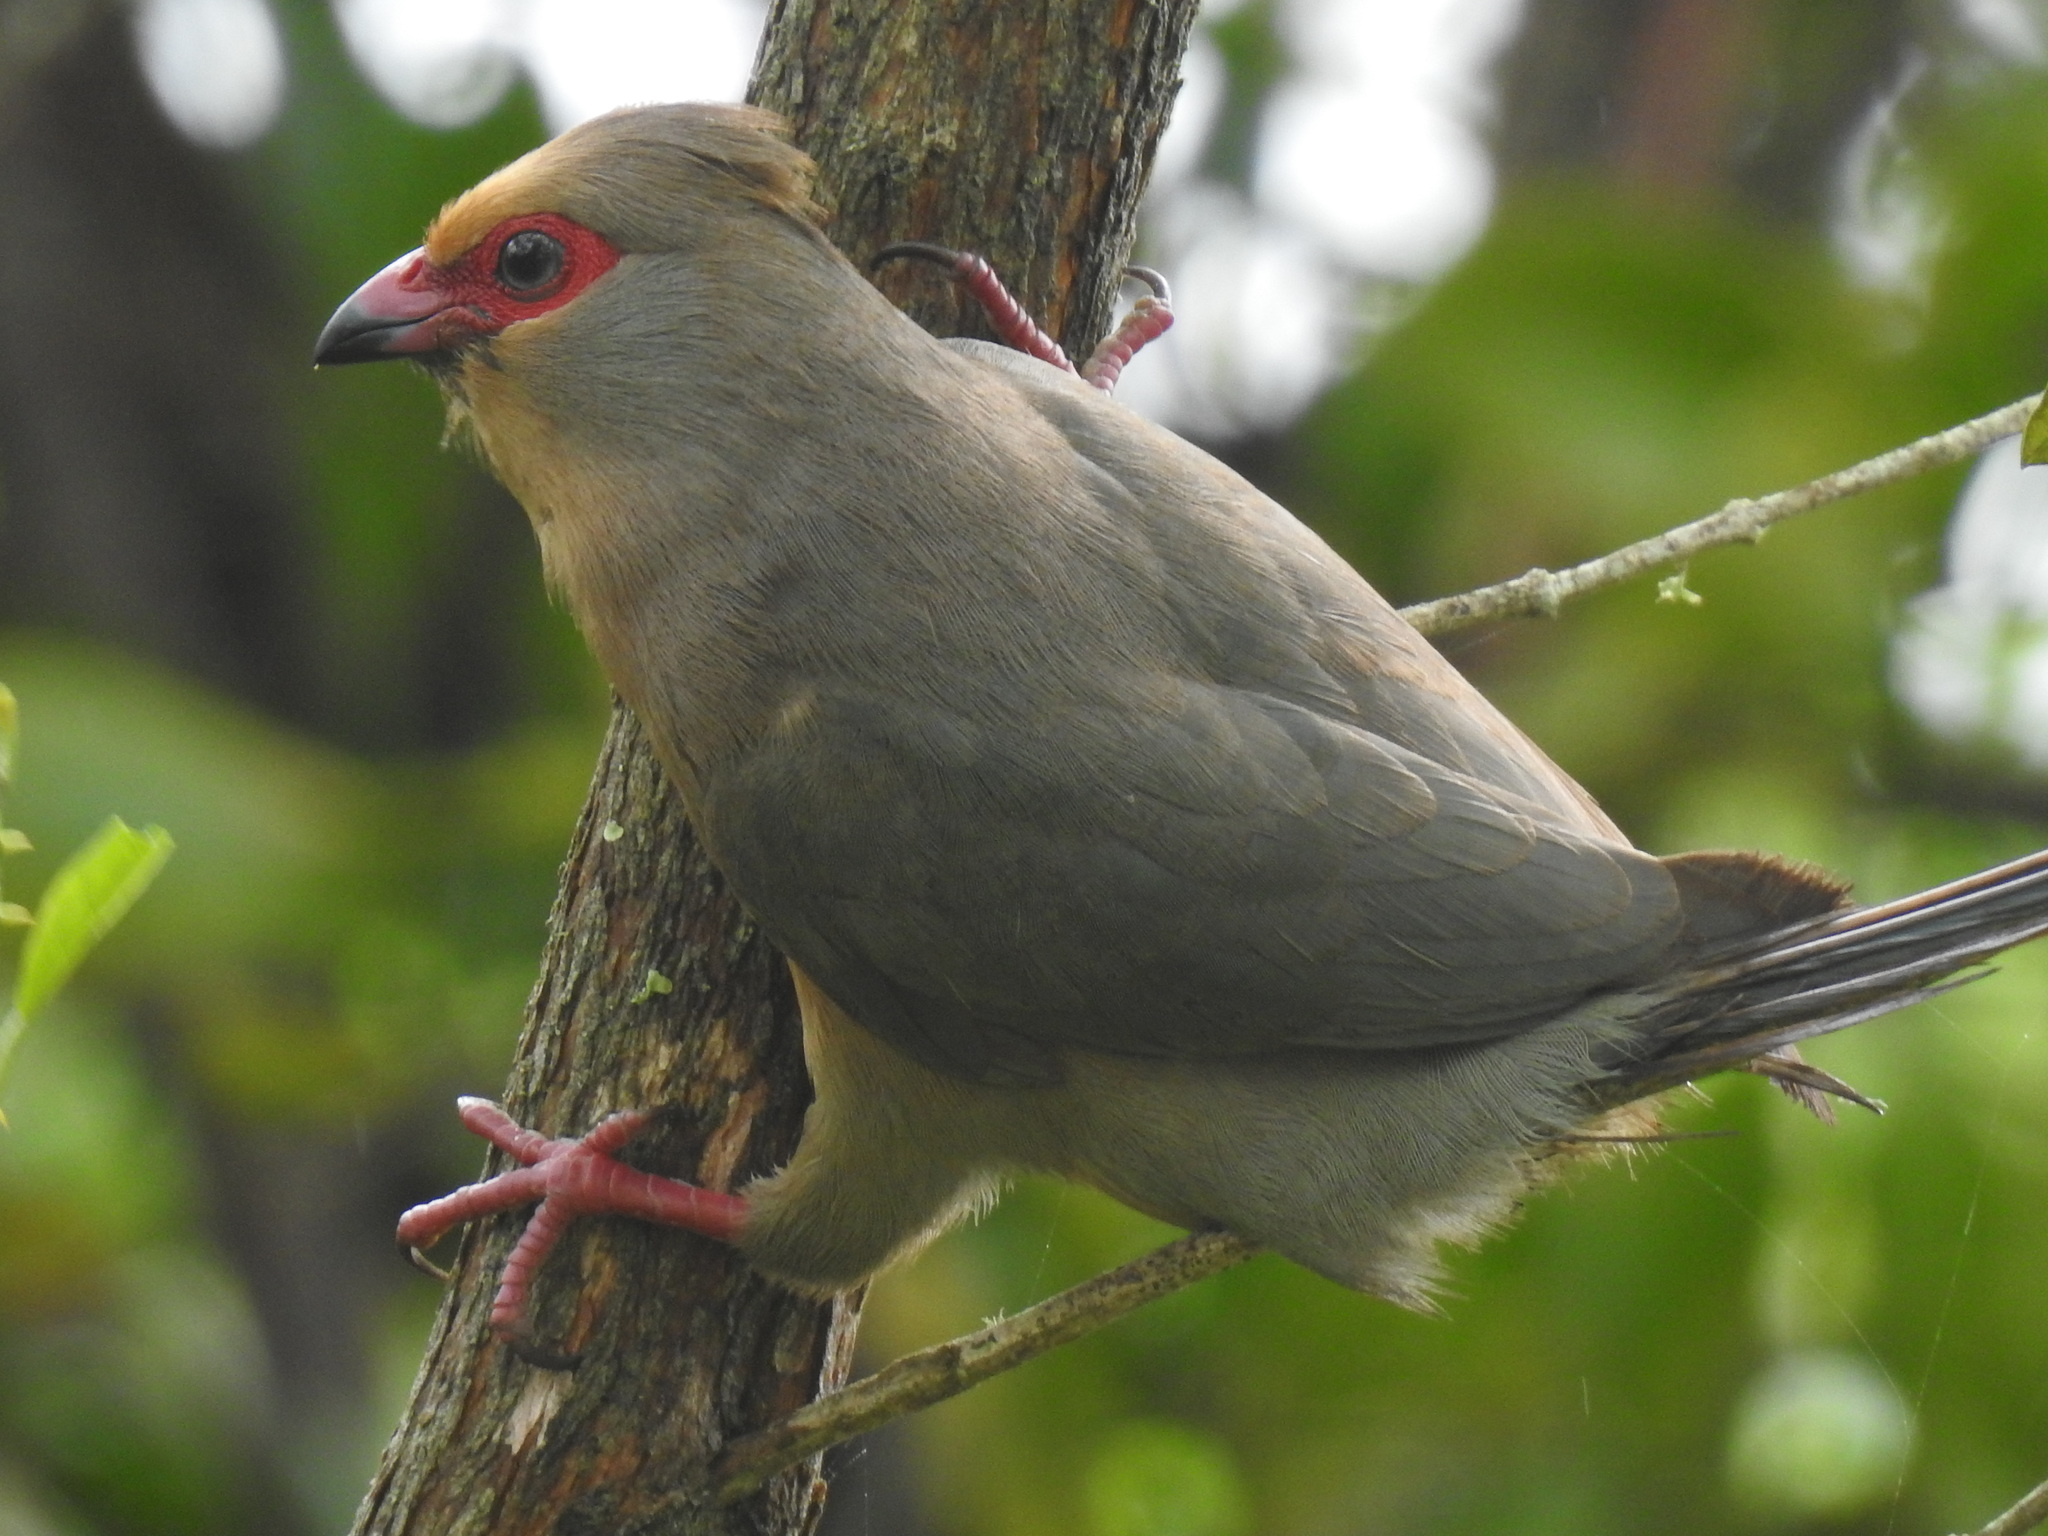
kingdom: Animalia
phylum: Chordata
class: Aves
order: Coliiformes
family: Coliidae
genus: Urocolius
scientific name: Urocolius indicus
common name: Red-faced mousebird
